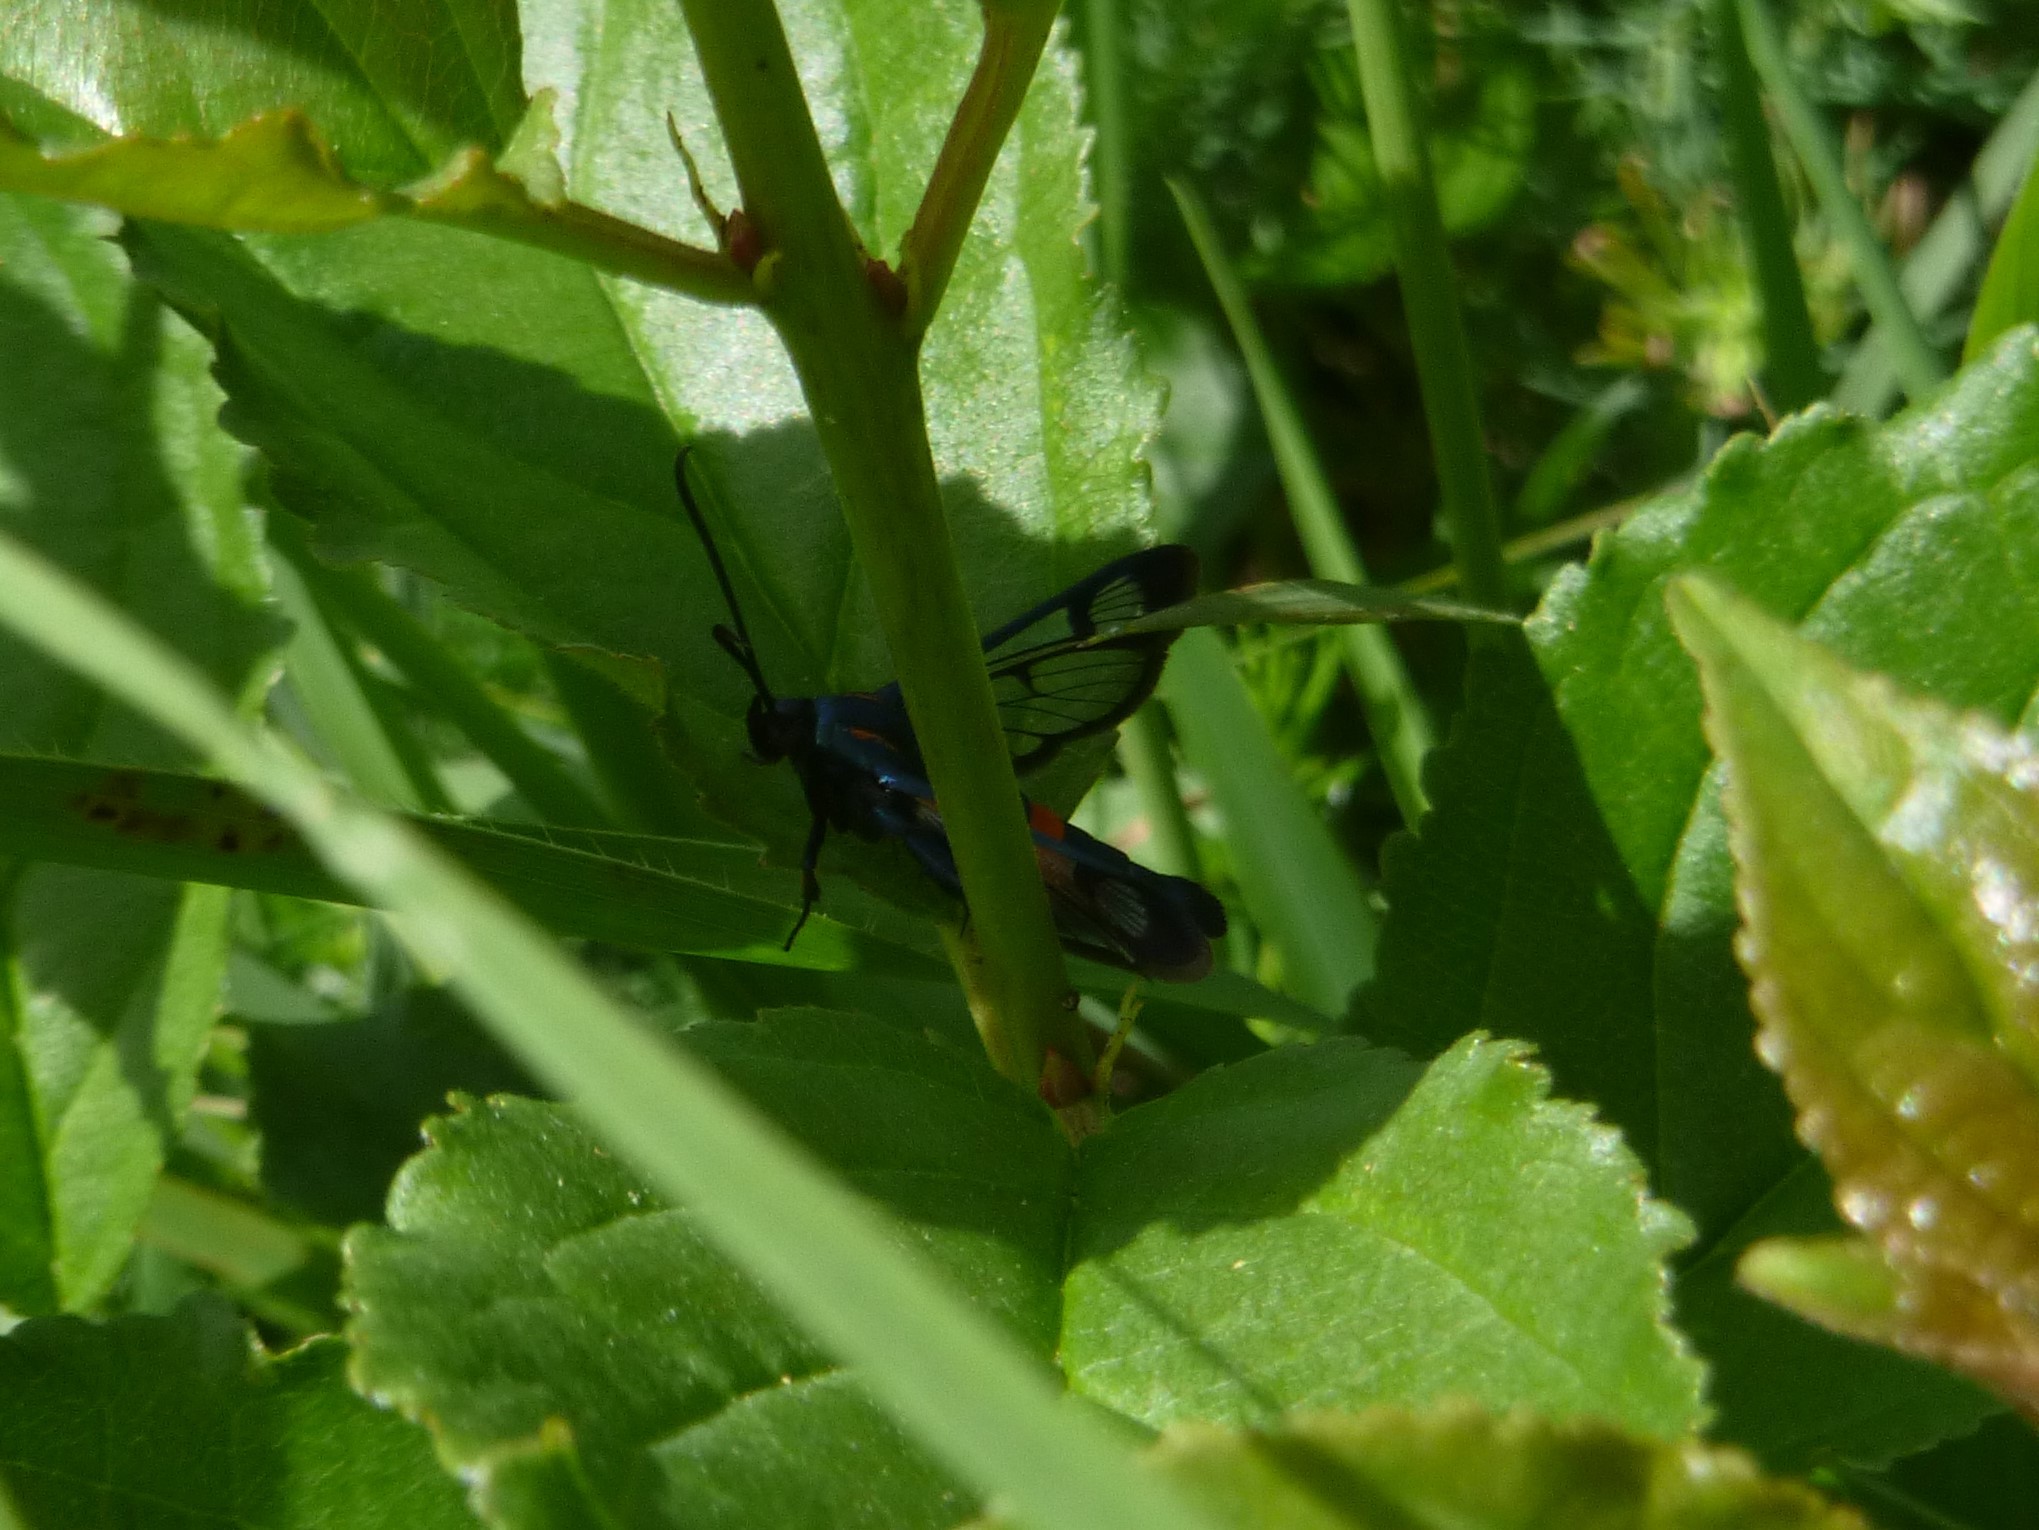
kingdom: Animalia
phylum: Arthropoda
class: Insecta
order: Lepidoptera
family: Sesiidae
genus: Synanthedon
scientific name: Synanthedon stomoxiformis
